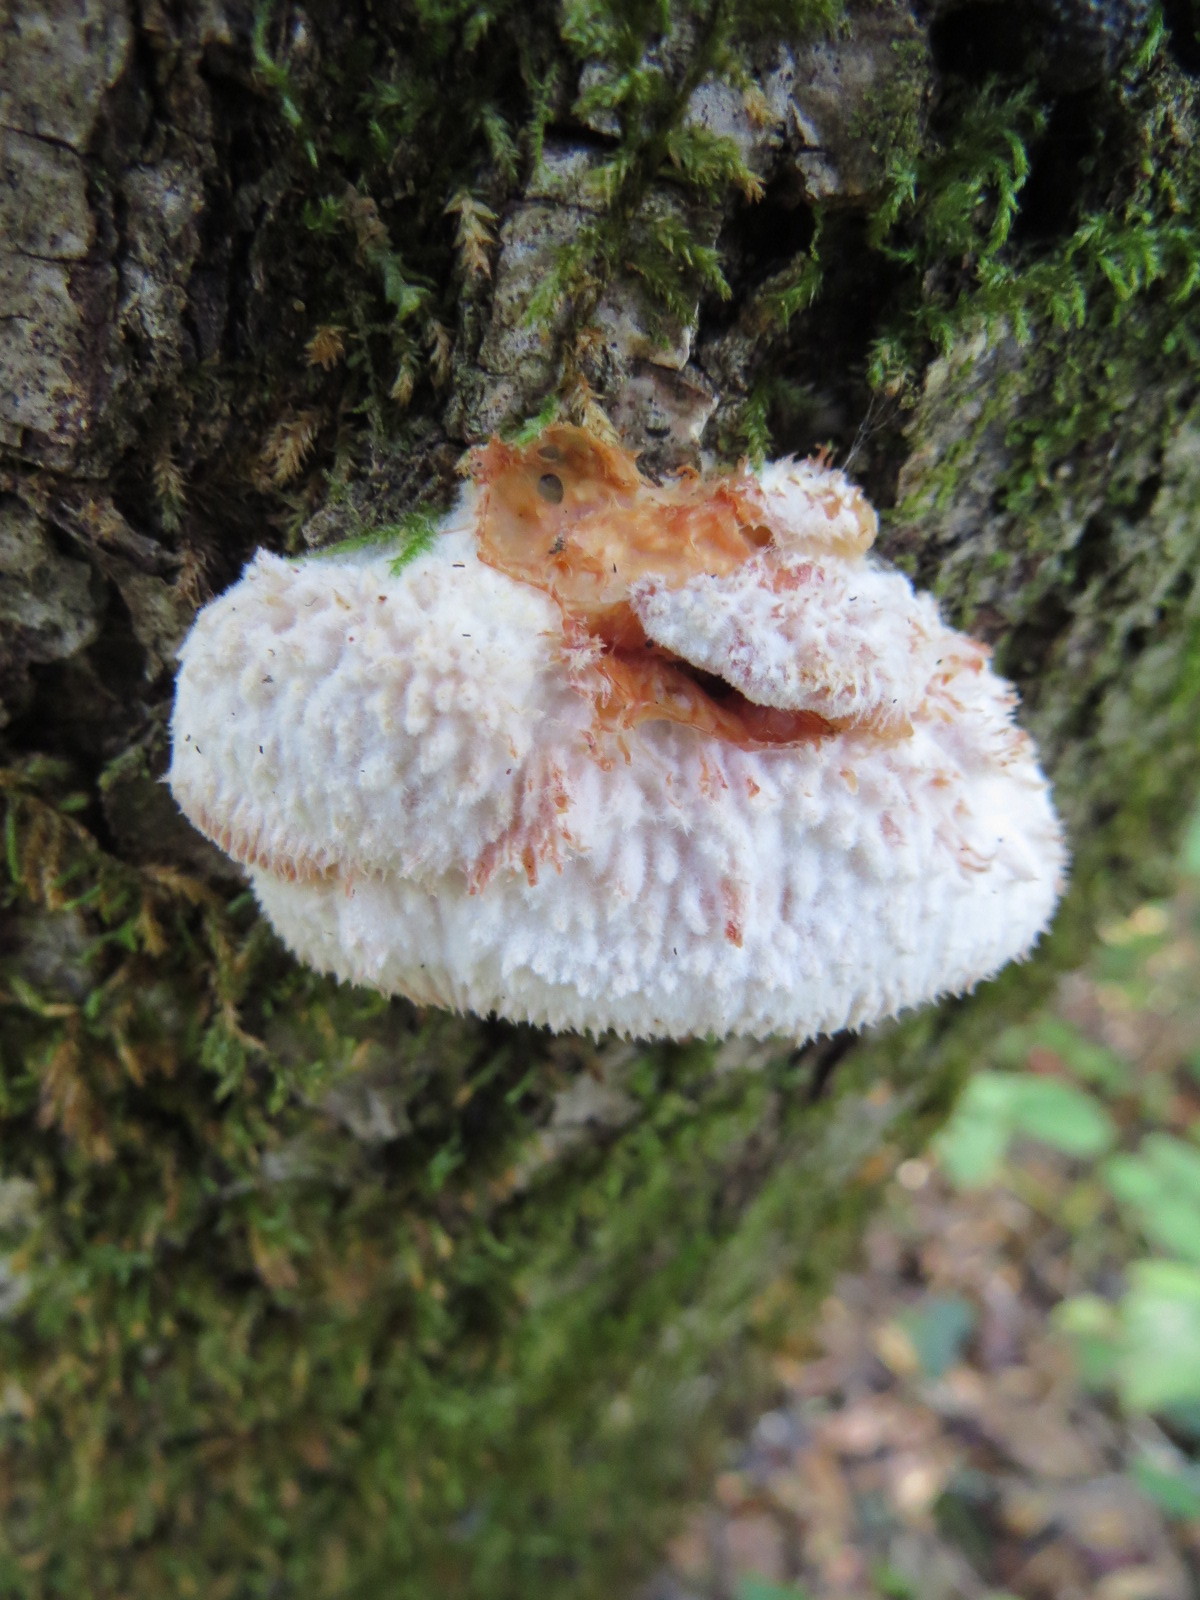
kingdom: Fungi
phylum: Basidiomycota
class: Agaricomycetes
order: Polyporales
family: Meruliaceae
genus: Phlebia
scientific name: Phlebia tremellosa
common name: Jelly rot
